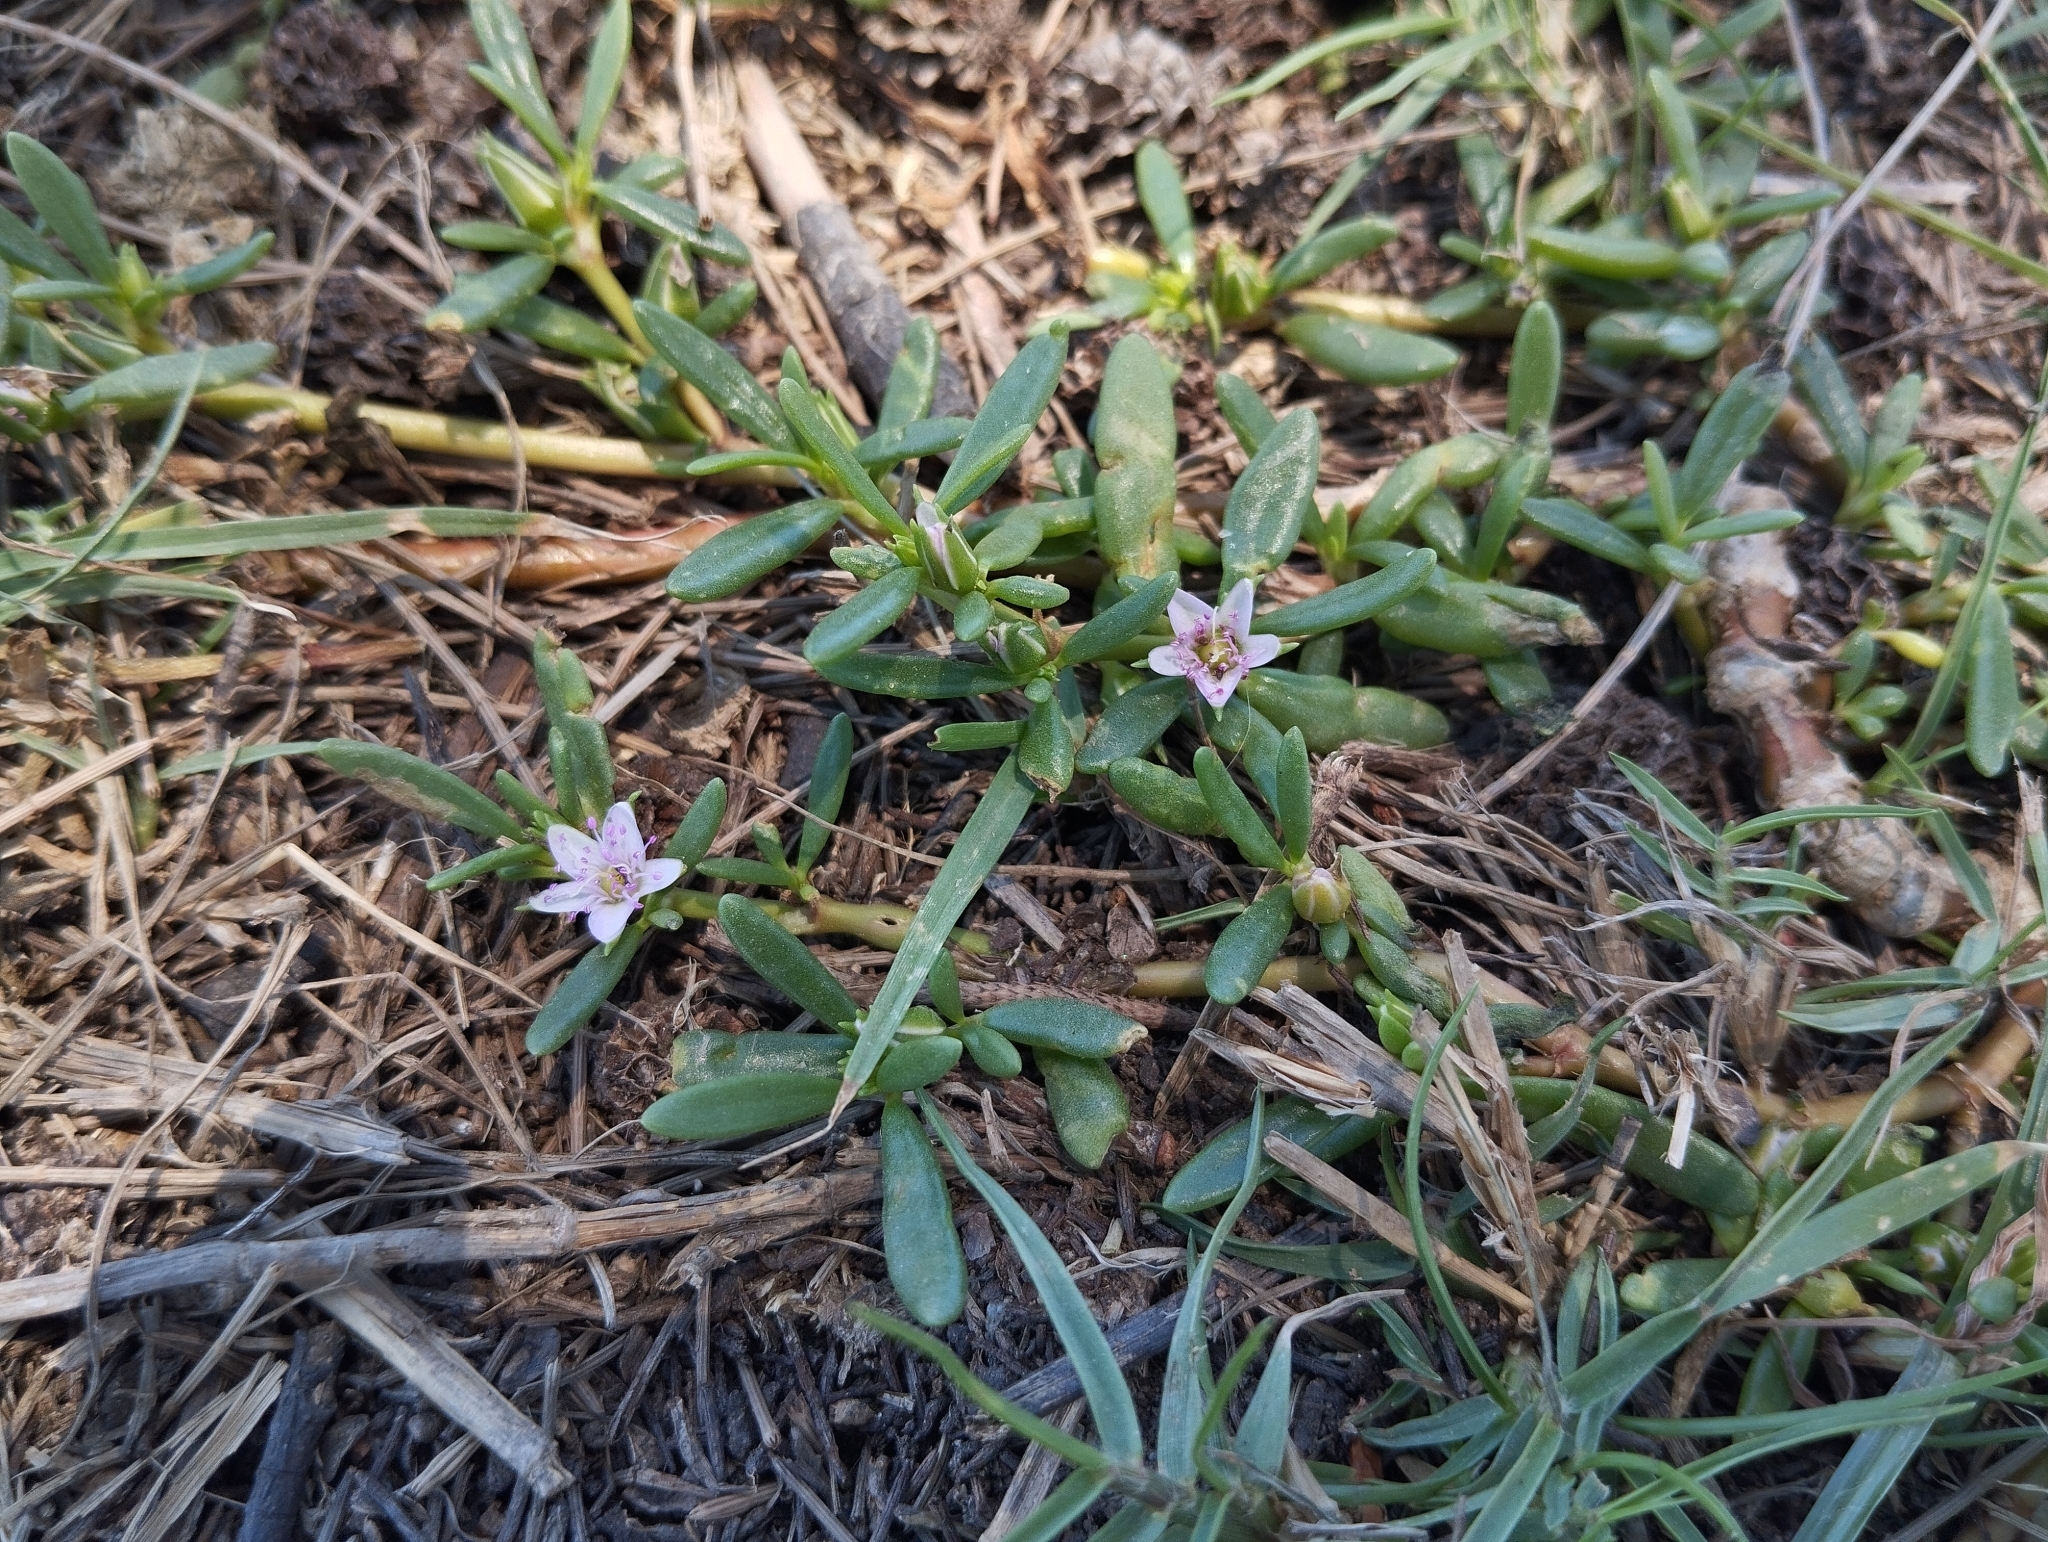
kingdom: Plantae
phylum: Tracheophyta
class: Magnoliopsida
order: Caryophyllales
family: Aizoaceae
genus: Sesuvium
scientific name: Sesuvium portulacastrum
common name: Sea-purslane
